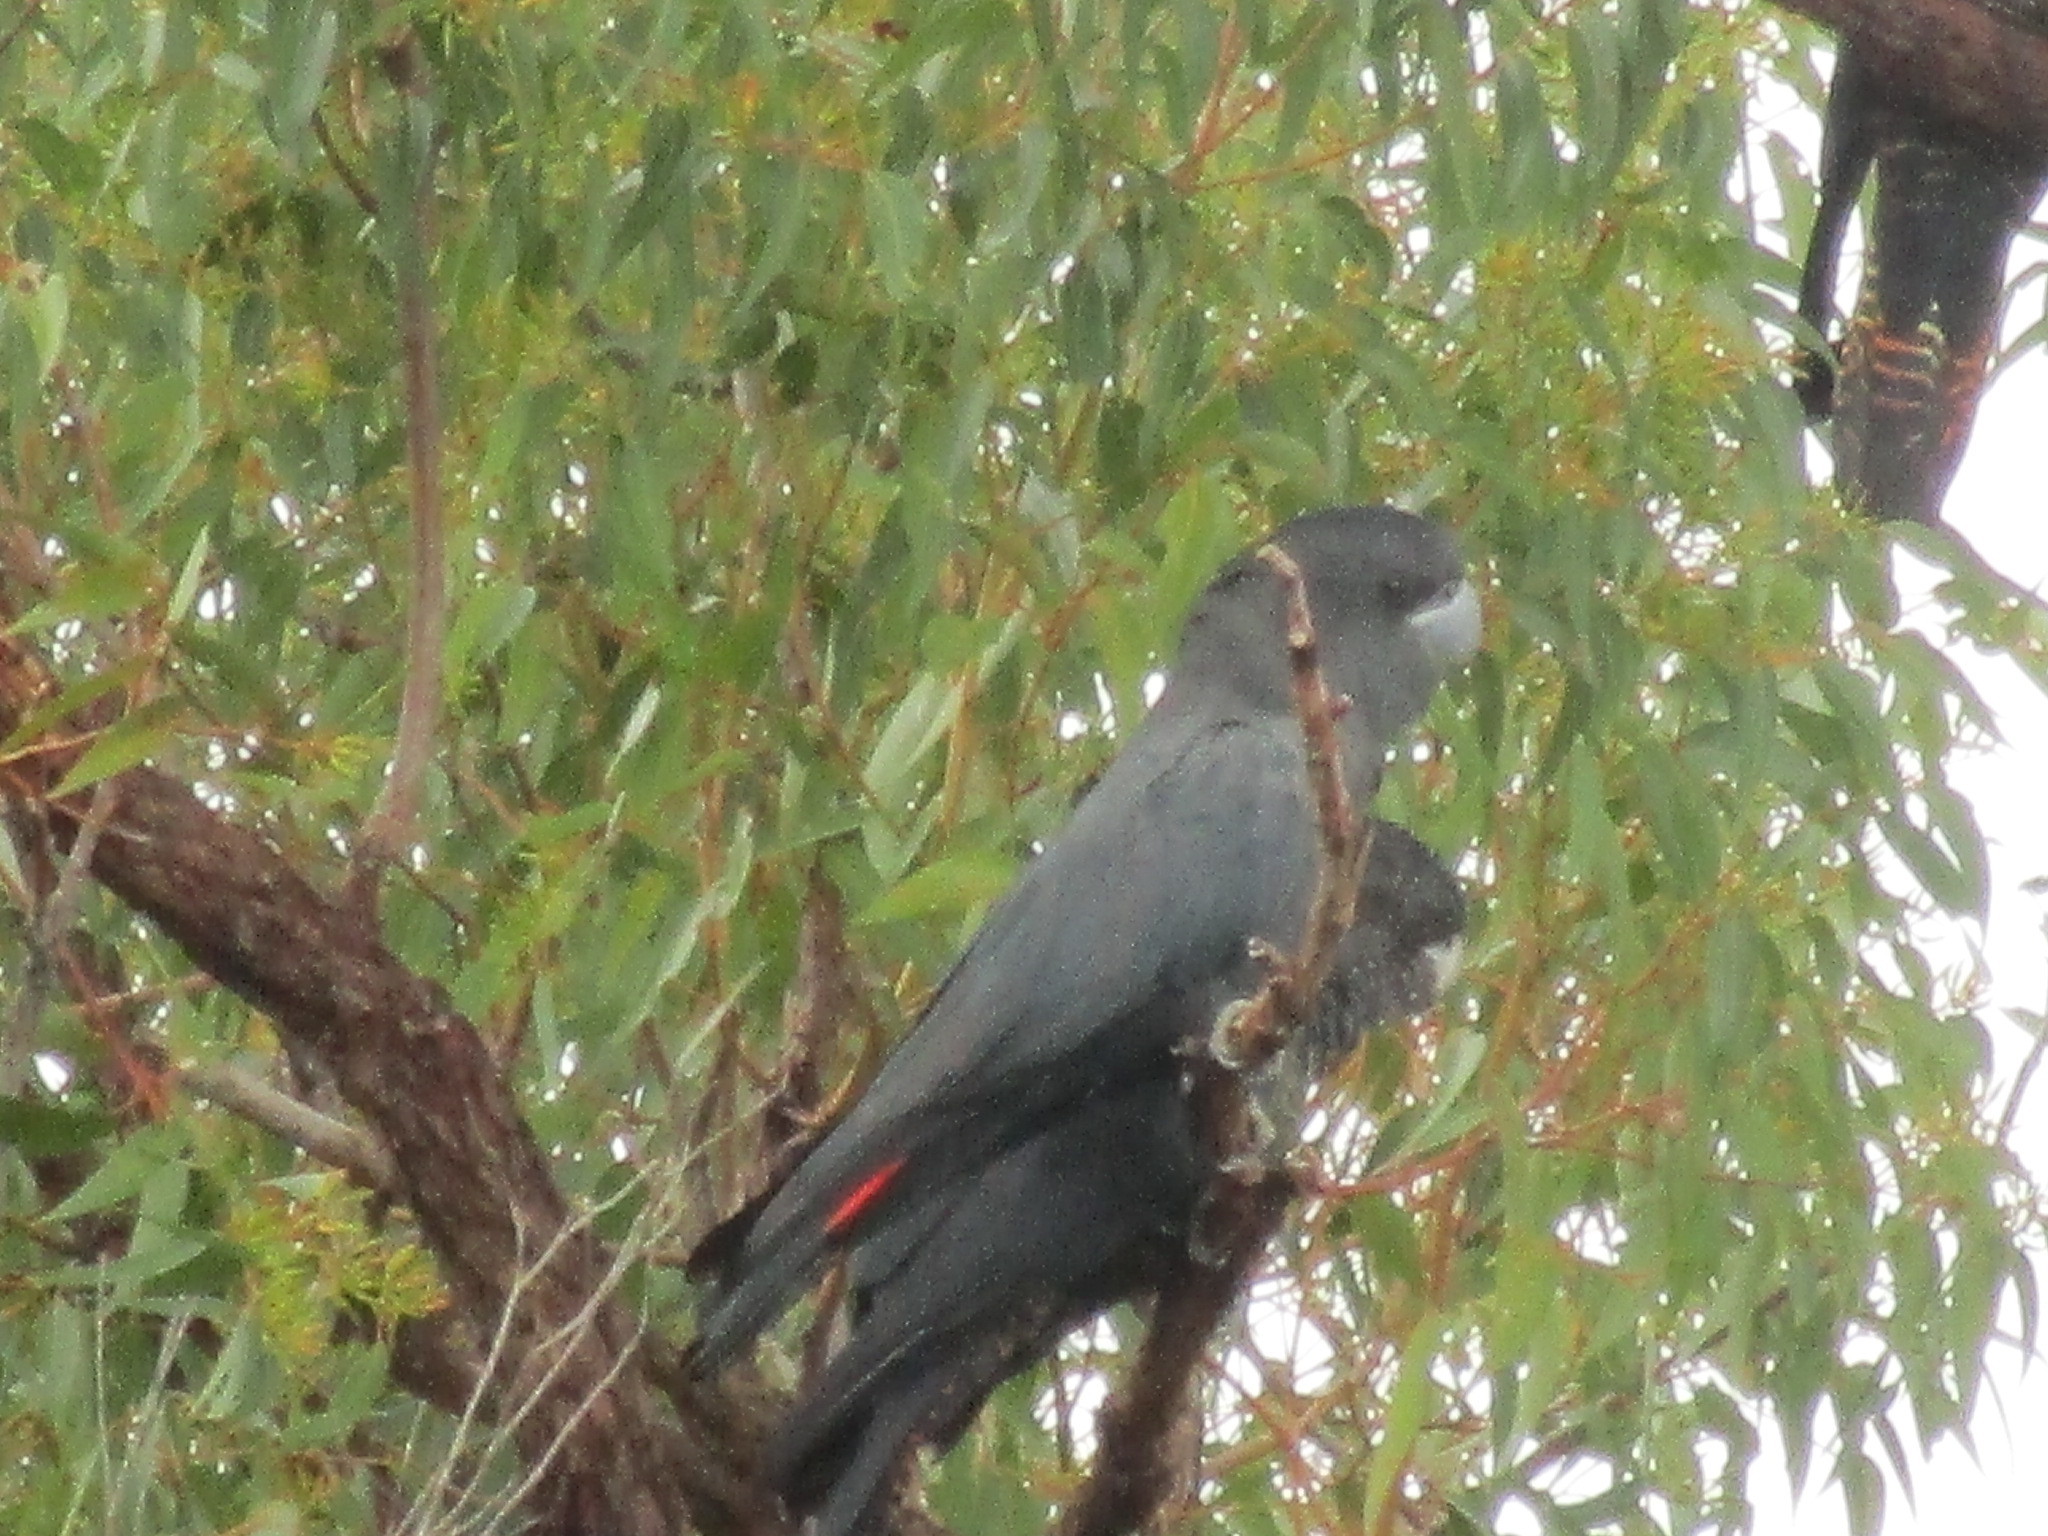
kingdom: Animalia
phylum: Chordata
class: Aves
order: Psittaciformes
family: Psittacidae
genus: Calyptorhynchus
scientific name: Calyptorhynchus banksii
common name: Red-tailed black cockatoo
